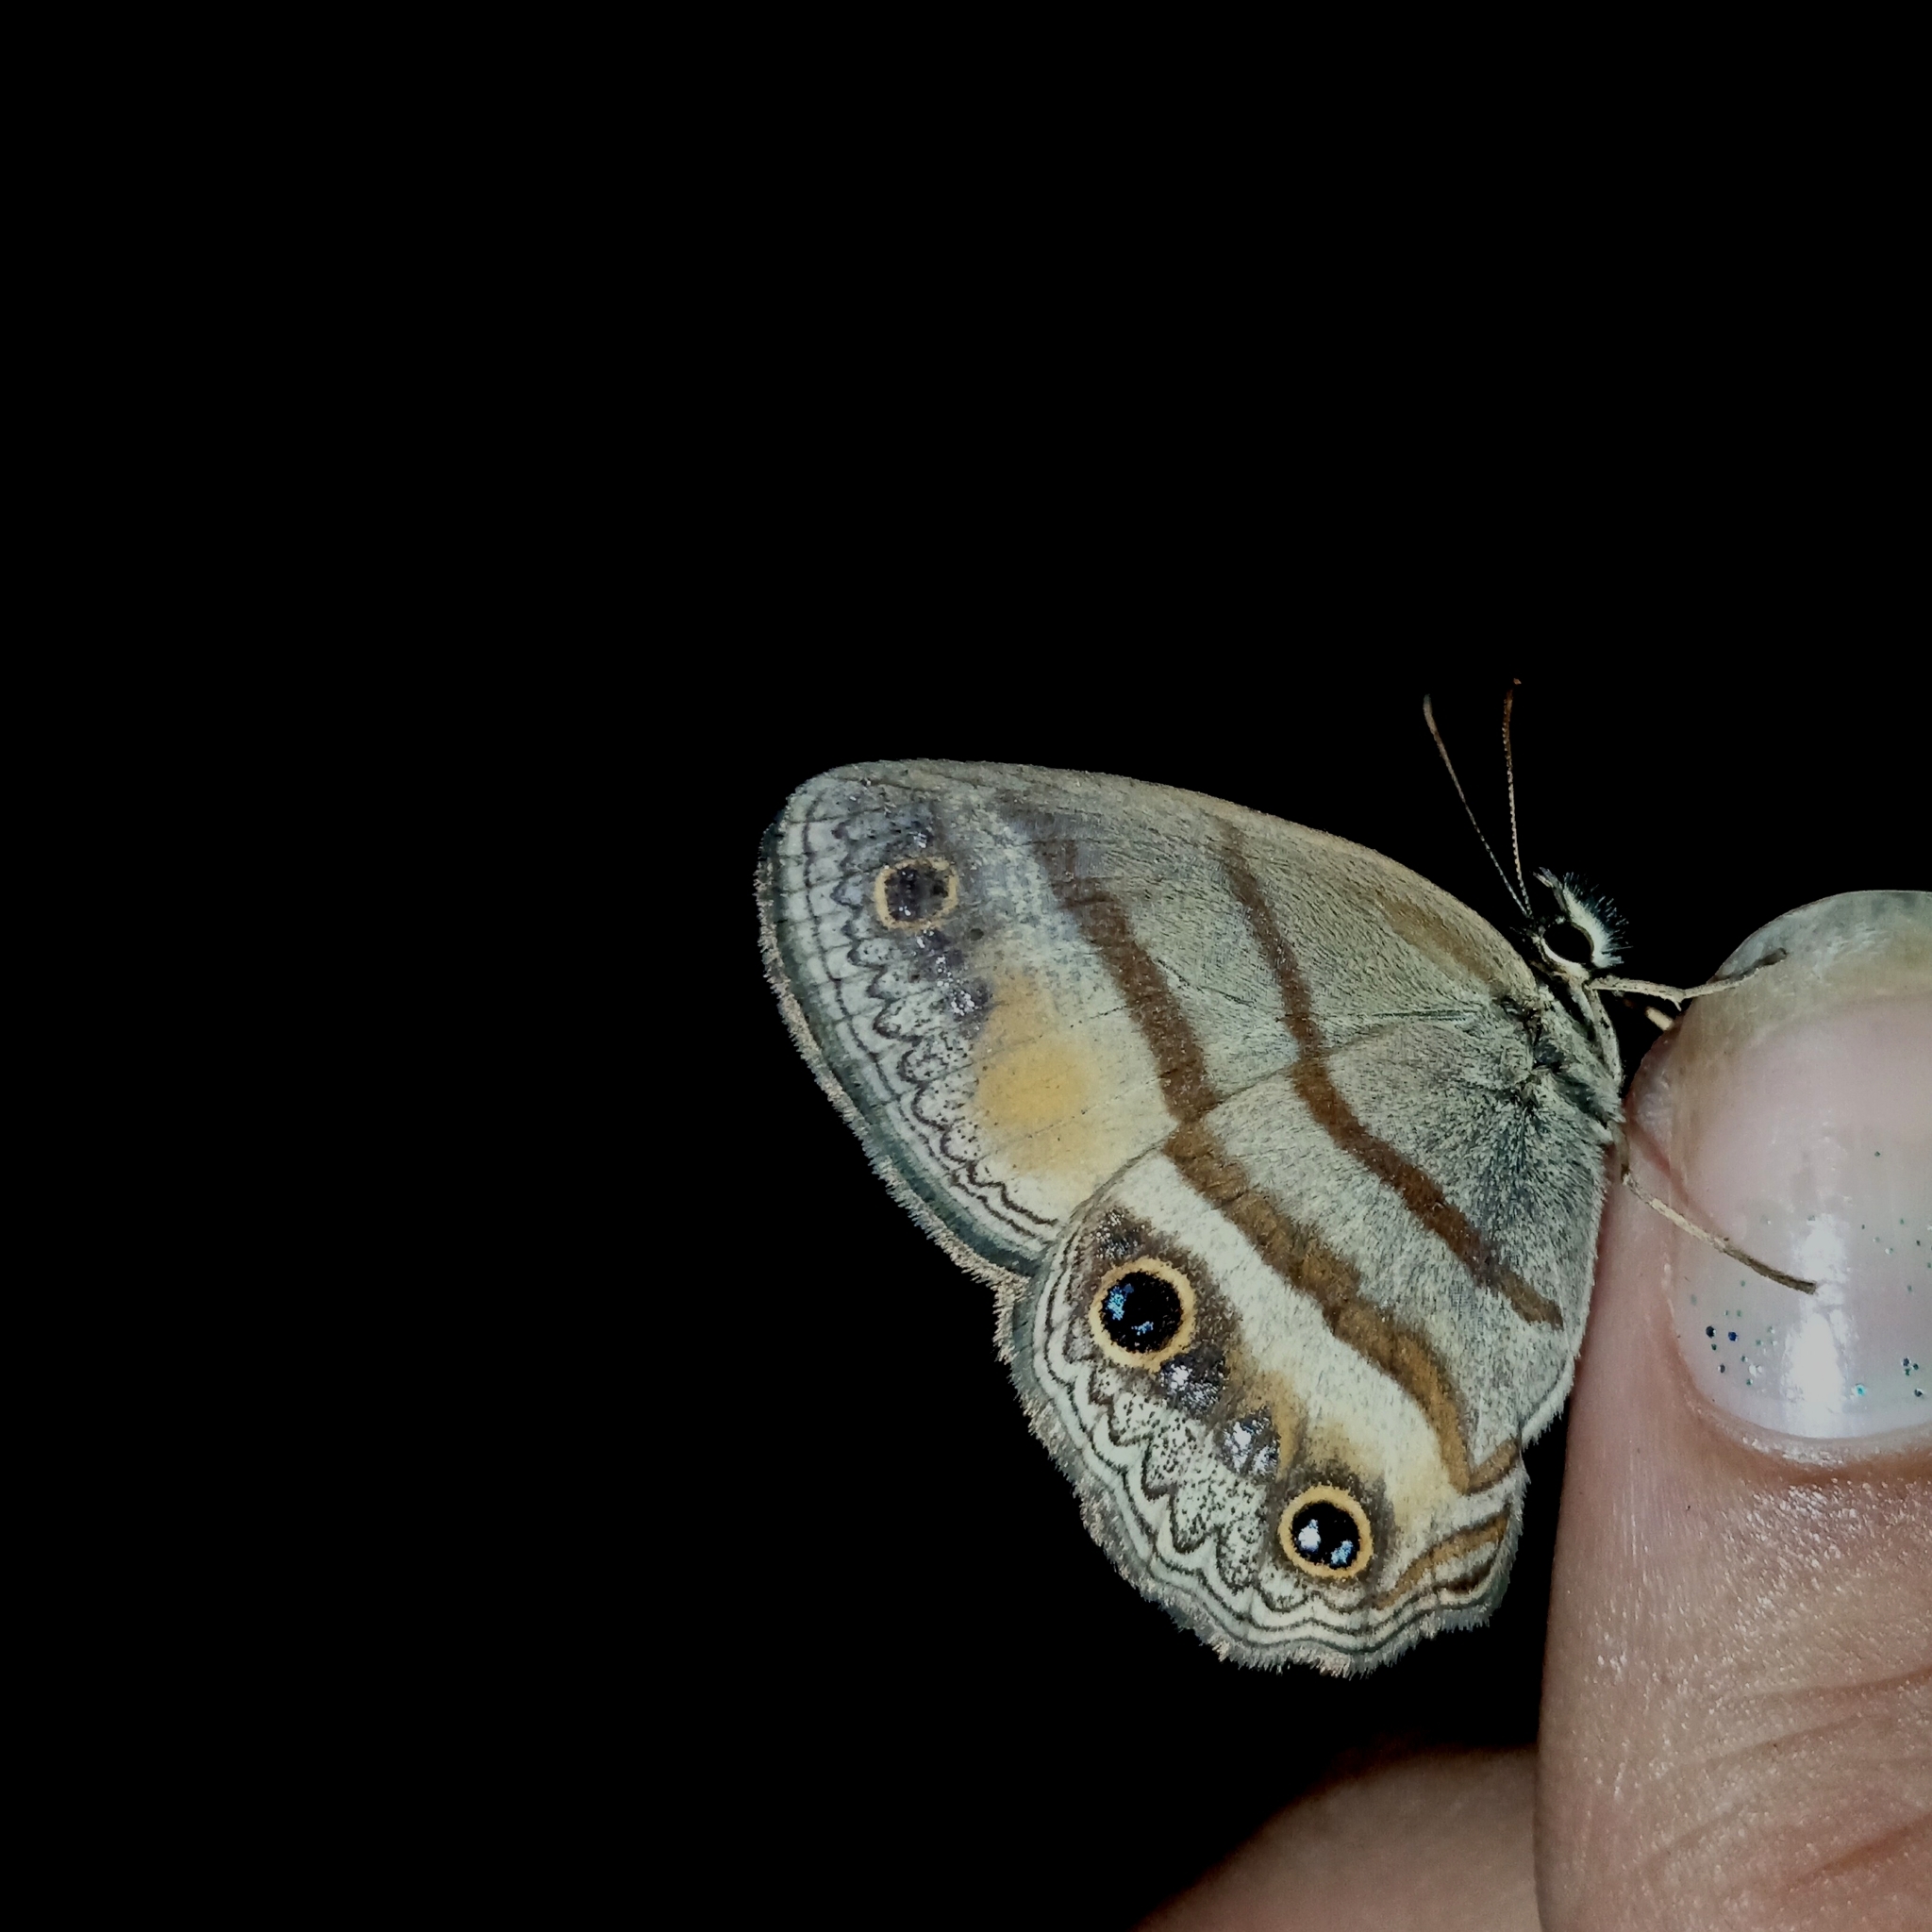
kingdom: Animalia
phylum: Arthropoda
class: Insecta
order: Lepidoptera
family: Nymphalidae
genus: Argyreuptychia
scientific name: Argyreuptychia penelope
